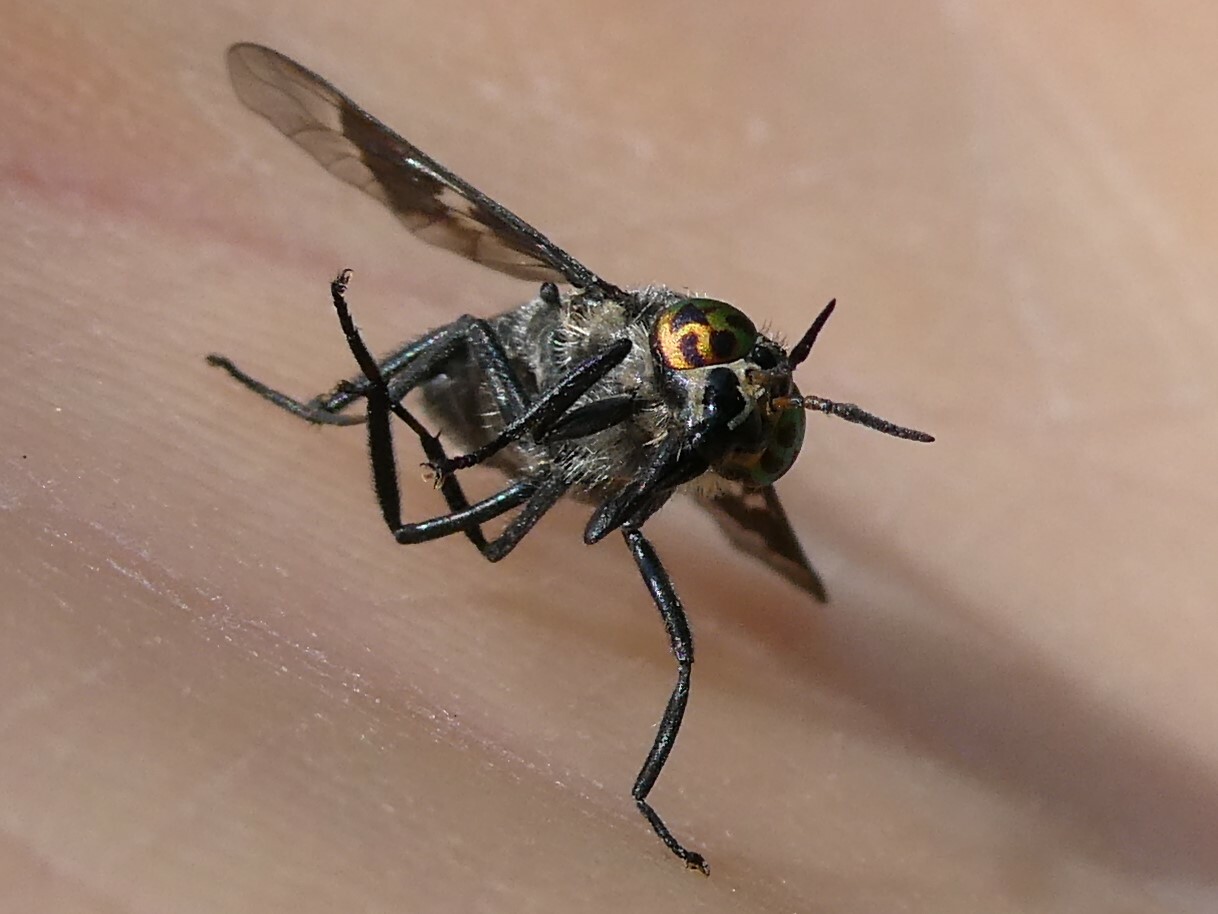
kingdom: Animalia
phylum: Arthropoda
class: Insecta
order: Diptera
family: Tabanidae
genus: Chrysops
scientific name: Chrysops carbonarius
